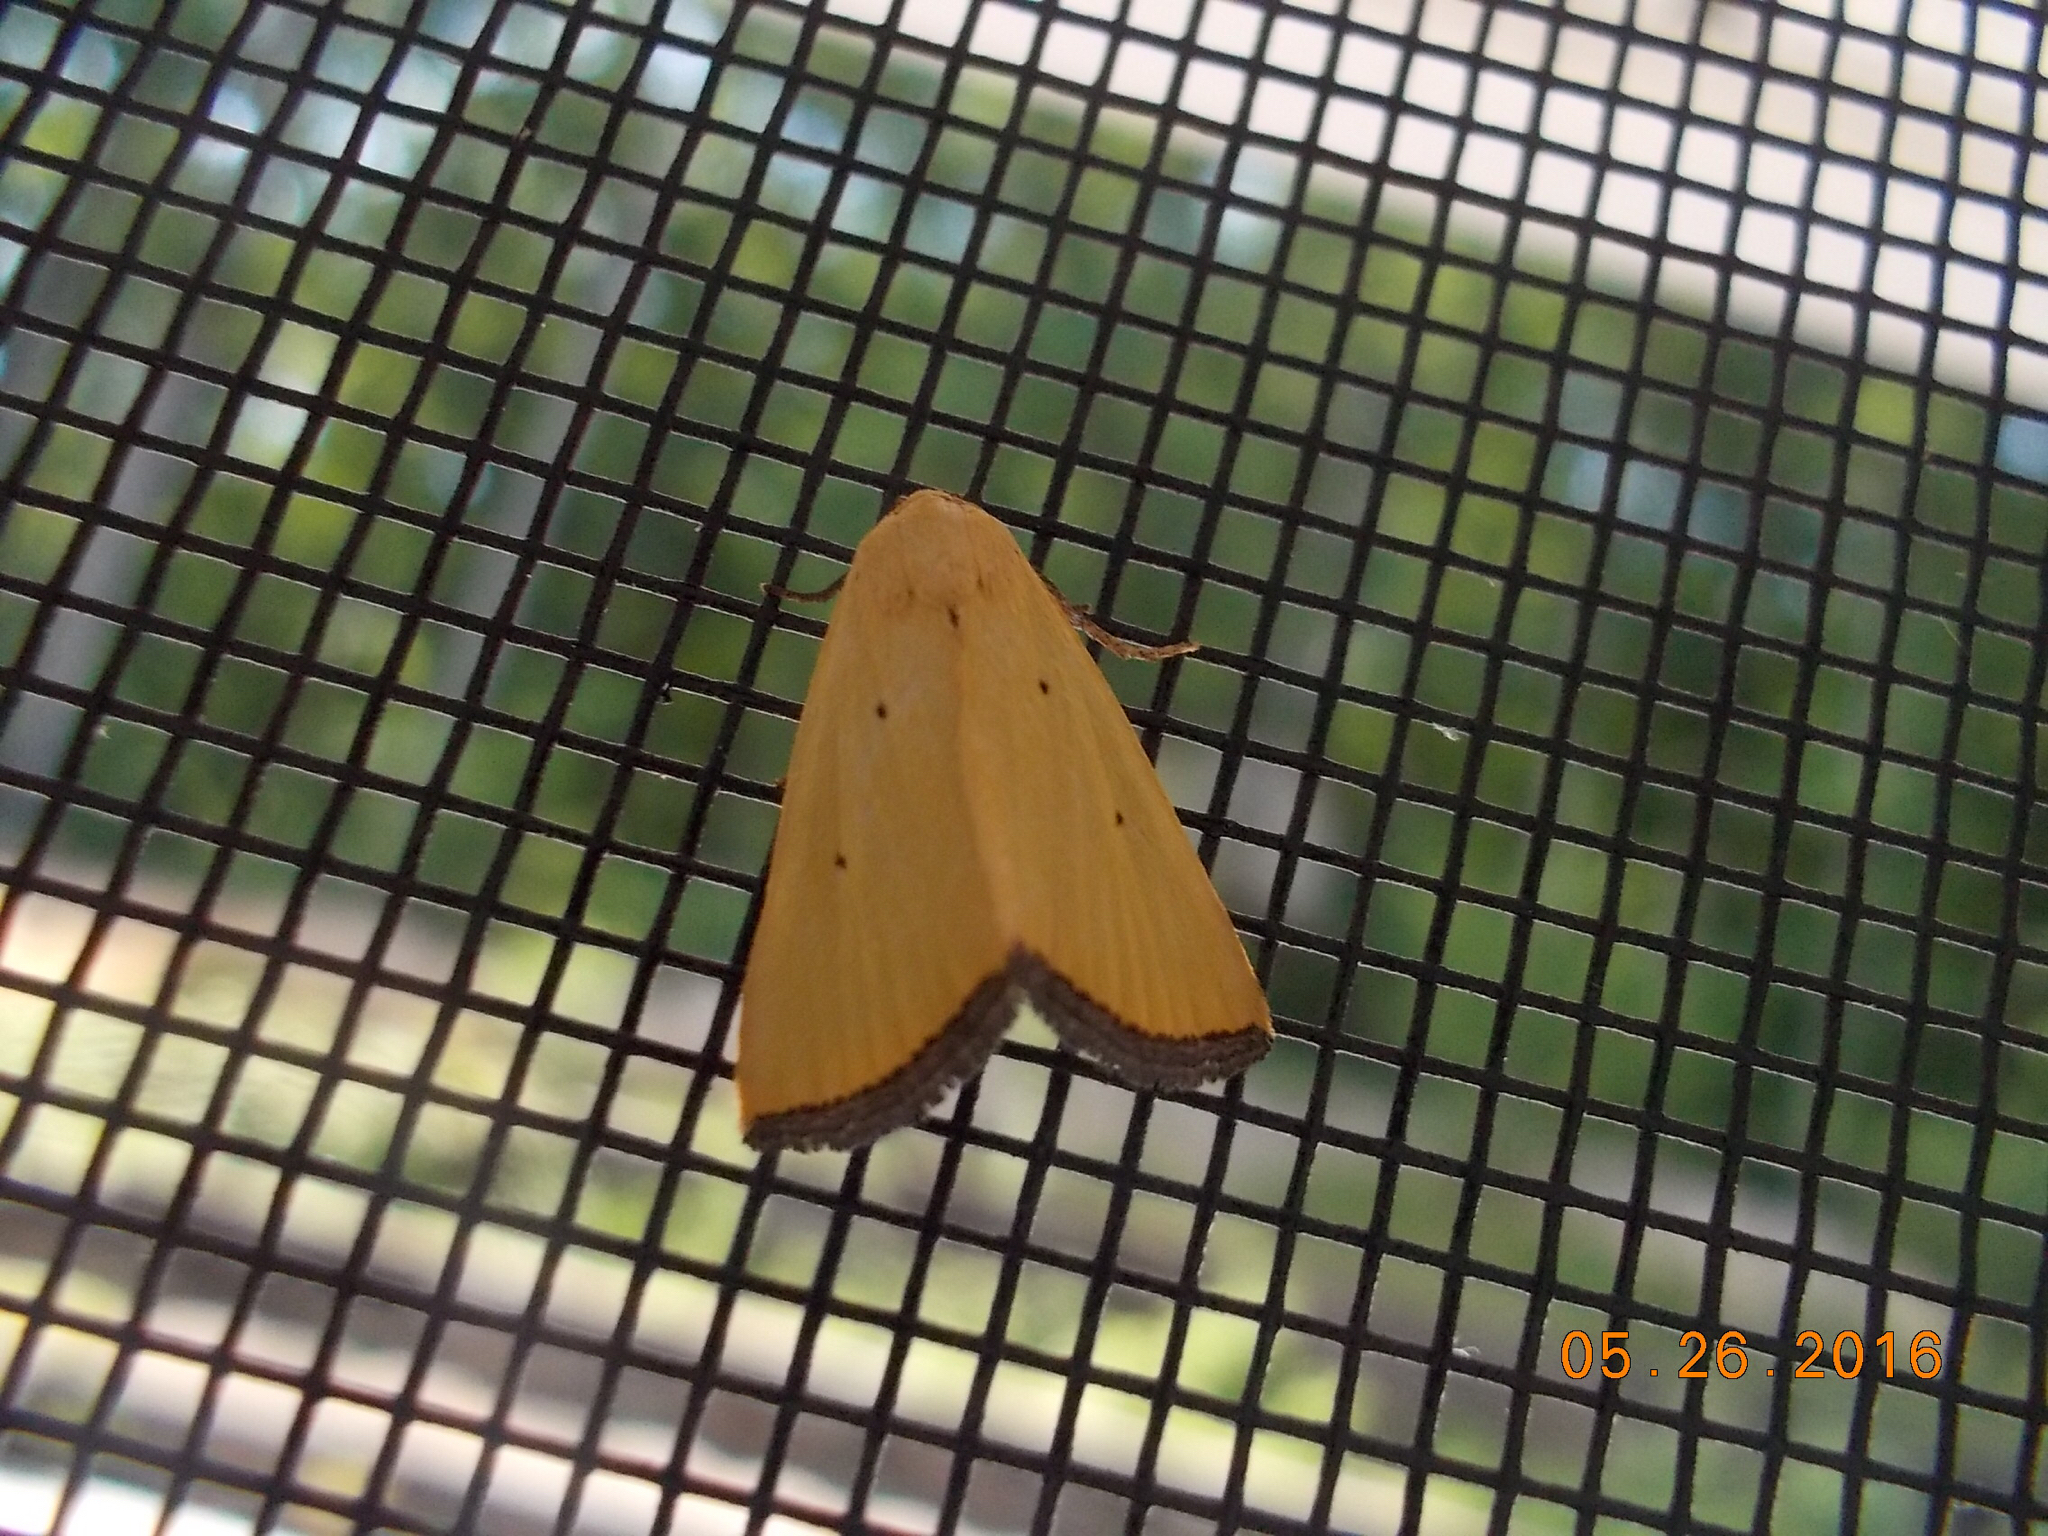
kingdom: Animalia
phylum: Arthropoda
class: Insecta
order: Lepidoptera
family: Noctuidae
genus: Marimatha
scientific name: Marimatha nigrofimbria
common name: Black-bordered lemon moth
